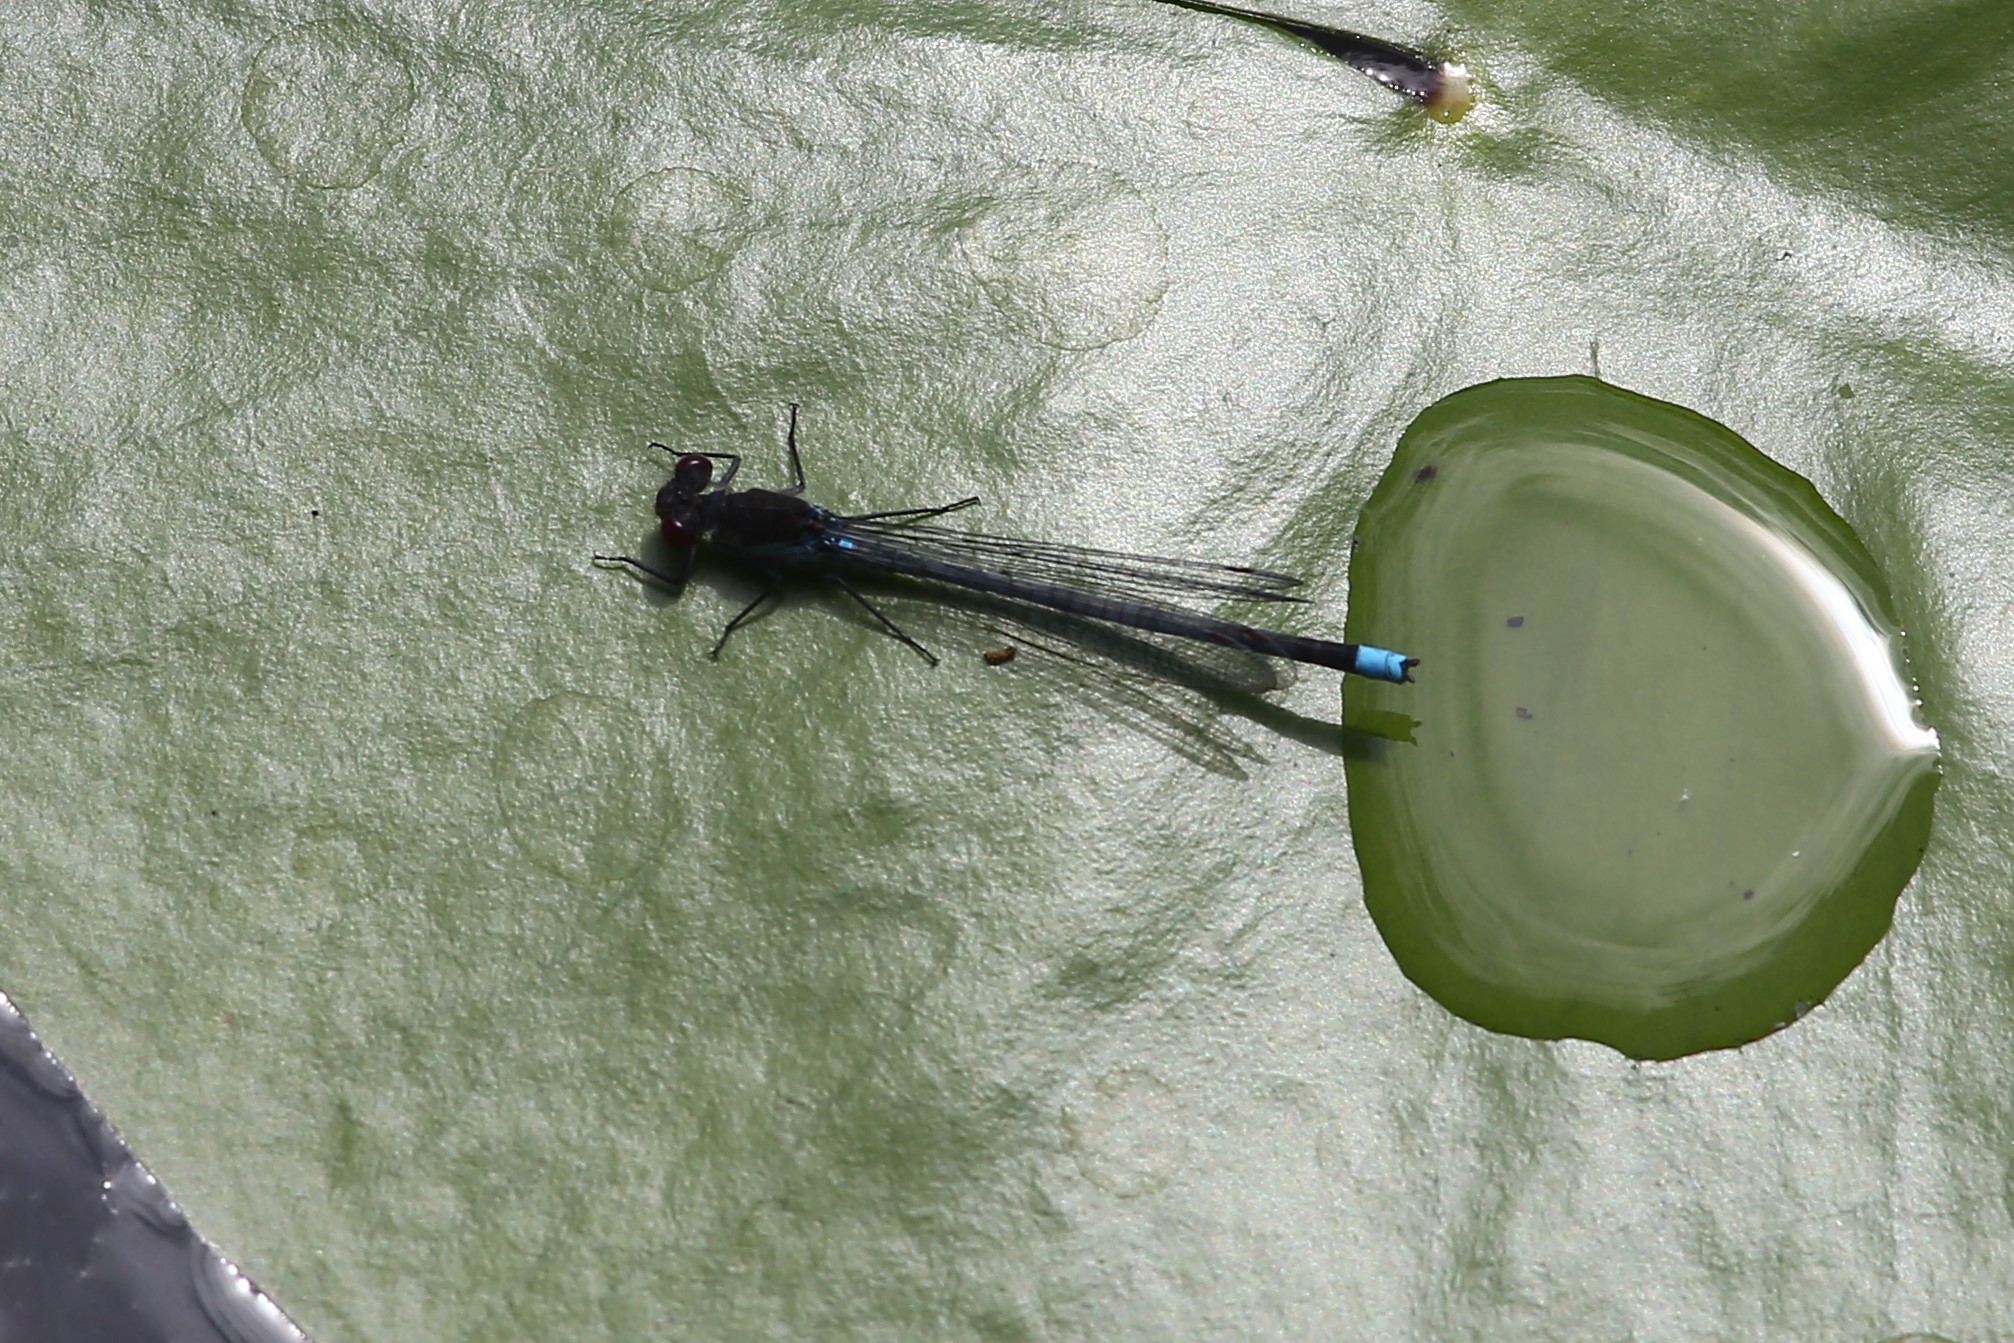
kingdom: Animalia
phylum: Arthropoda
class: Insecta
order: Odonata
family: Coenagrionidae
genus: Erythromma
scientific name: Erythromma najas
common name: Red-eyed damselfly
